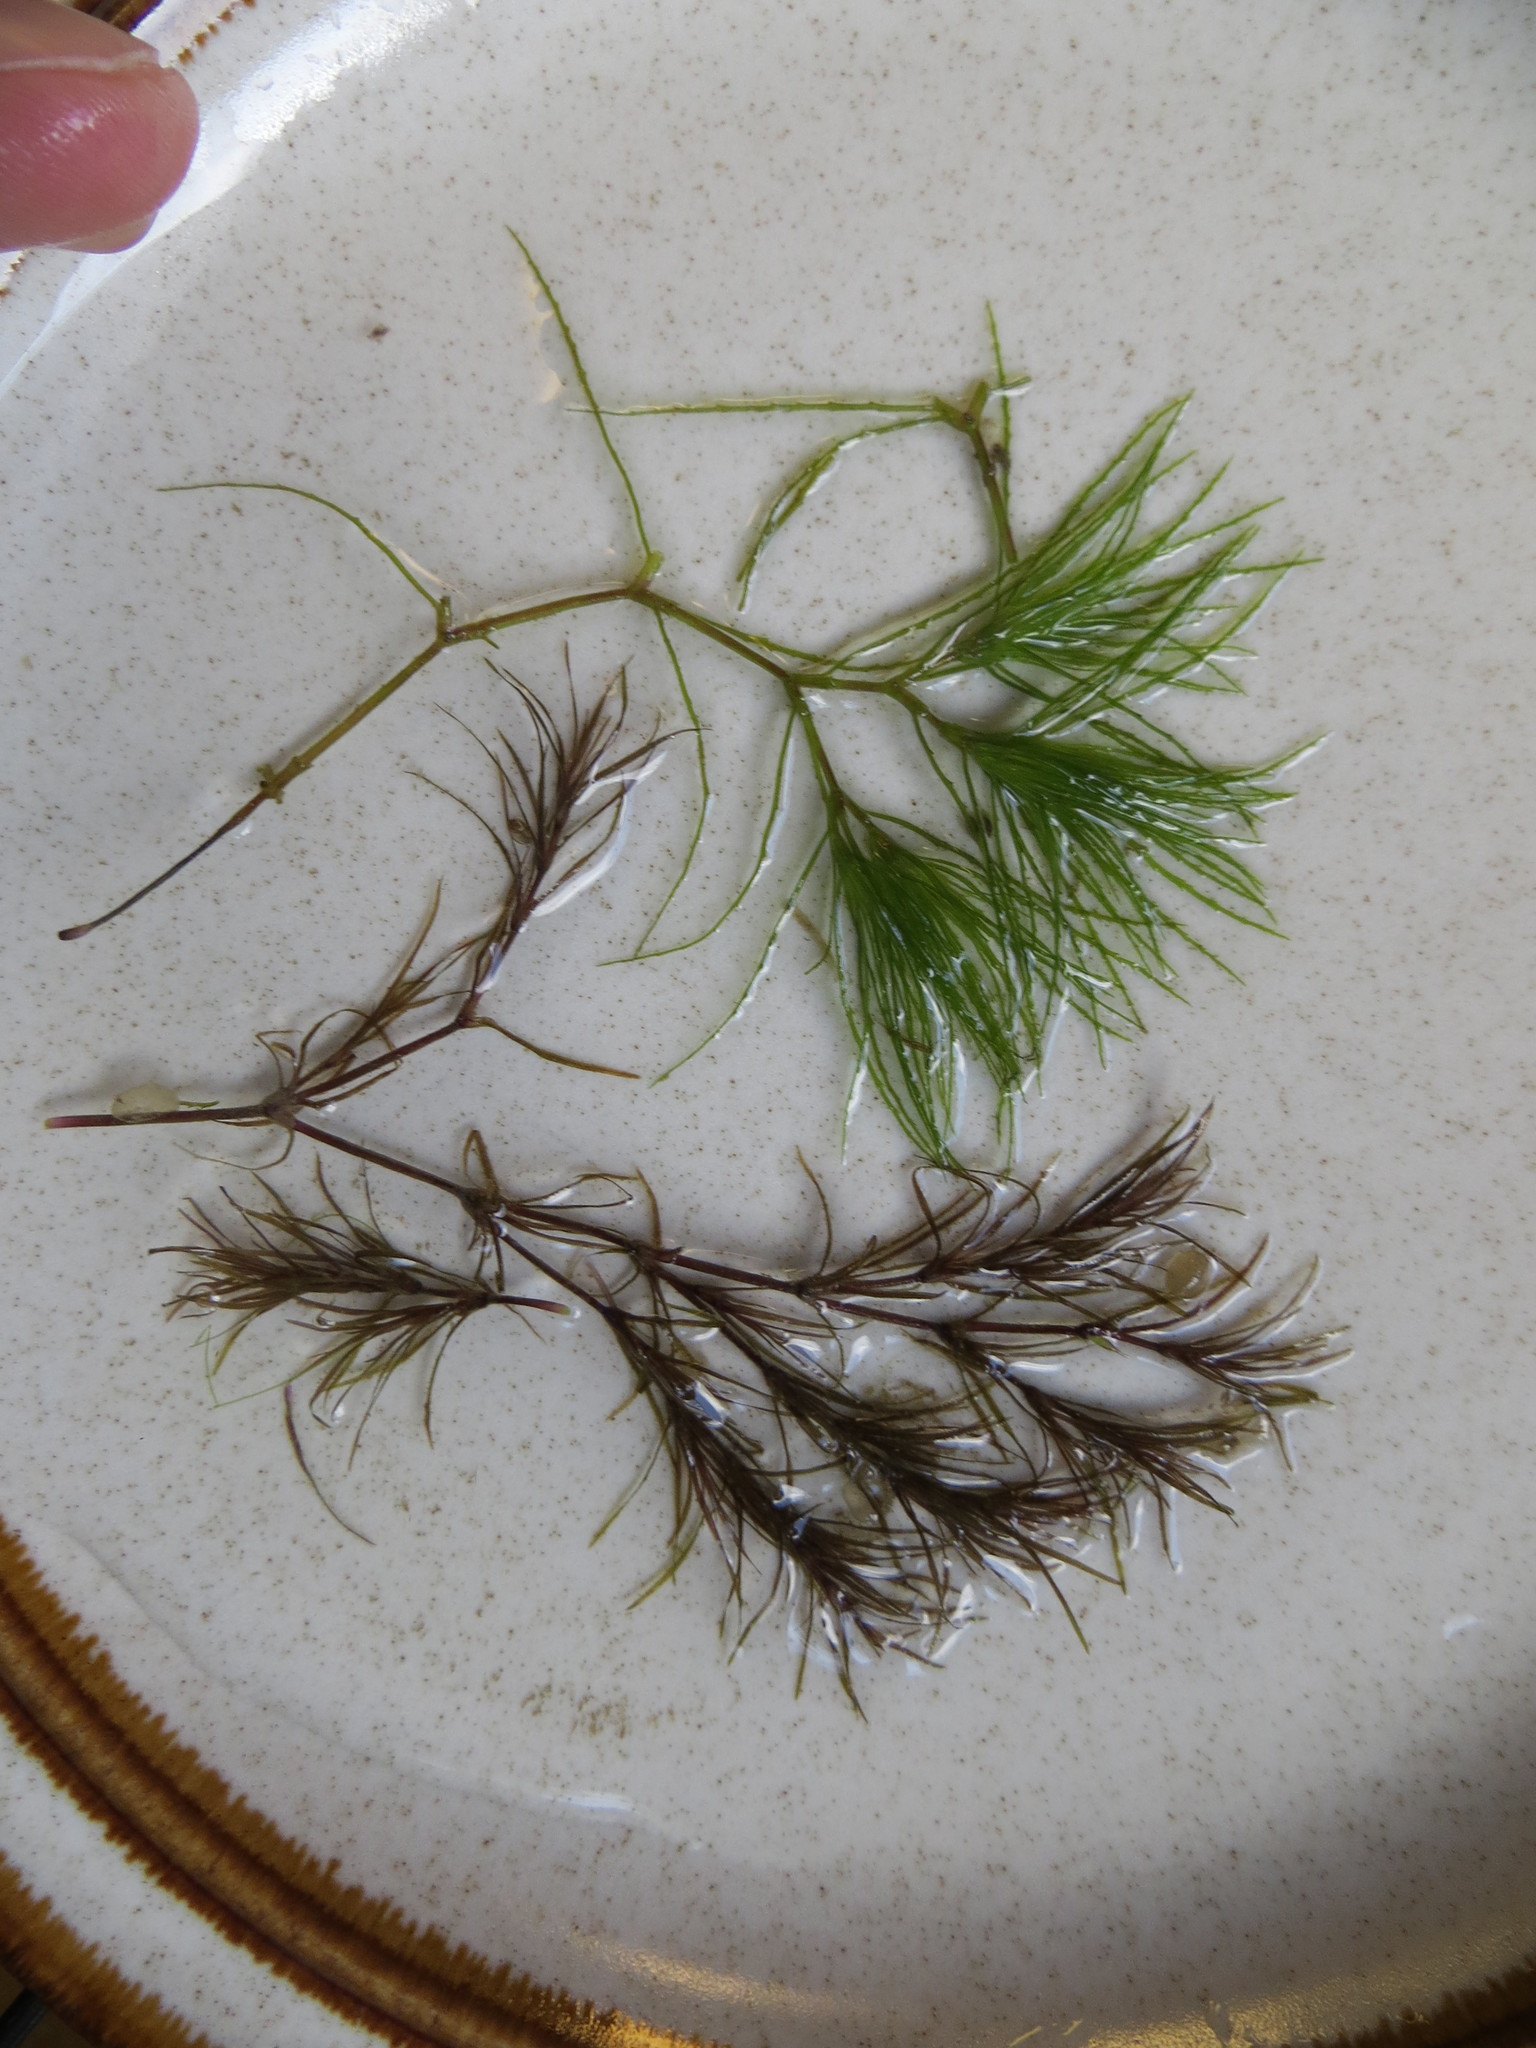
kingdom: Plantae
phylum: Tracheophyta
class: Liliopsida
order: Alismatales
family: Hydrocharitaceae
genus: Najas
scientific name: Najas minor
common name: Brittle naiad
